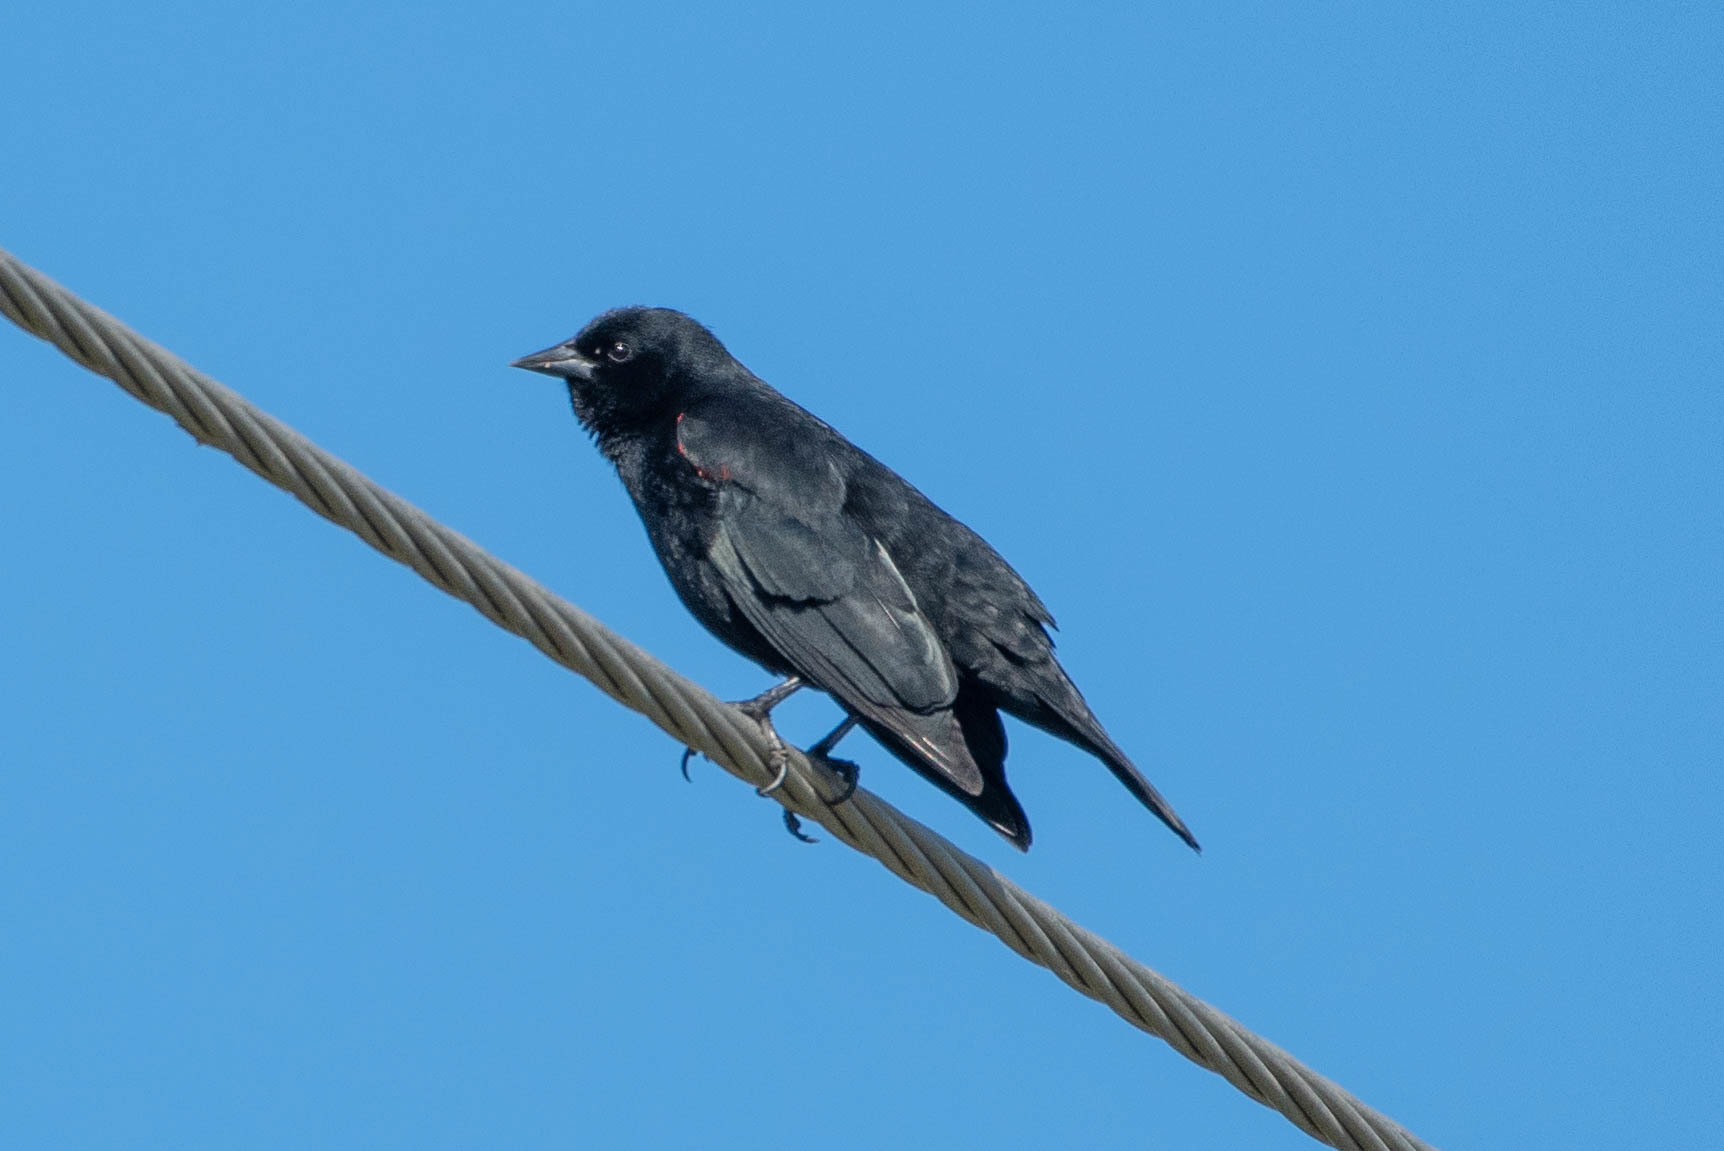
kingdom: Animalia
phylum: Chordata
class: Aves
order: Passeriformes
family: Icteridae
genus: Agelaius
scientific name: Agelaius phoeniceus
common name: Red-winged blackbird
